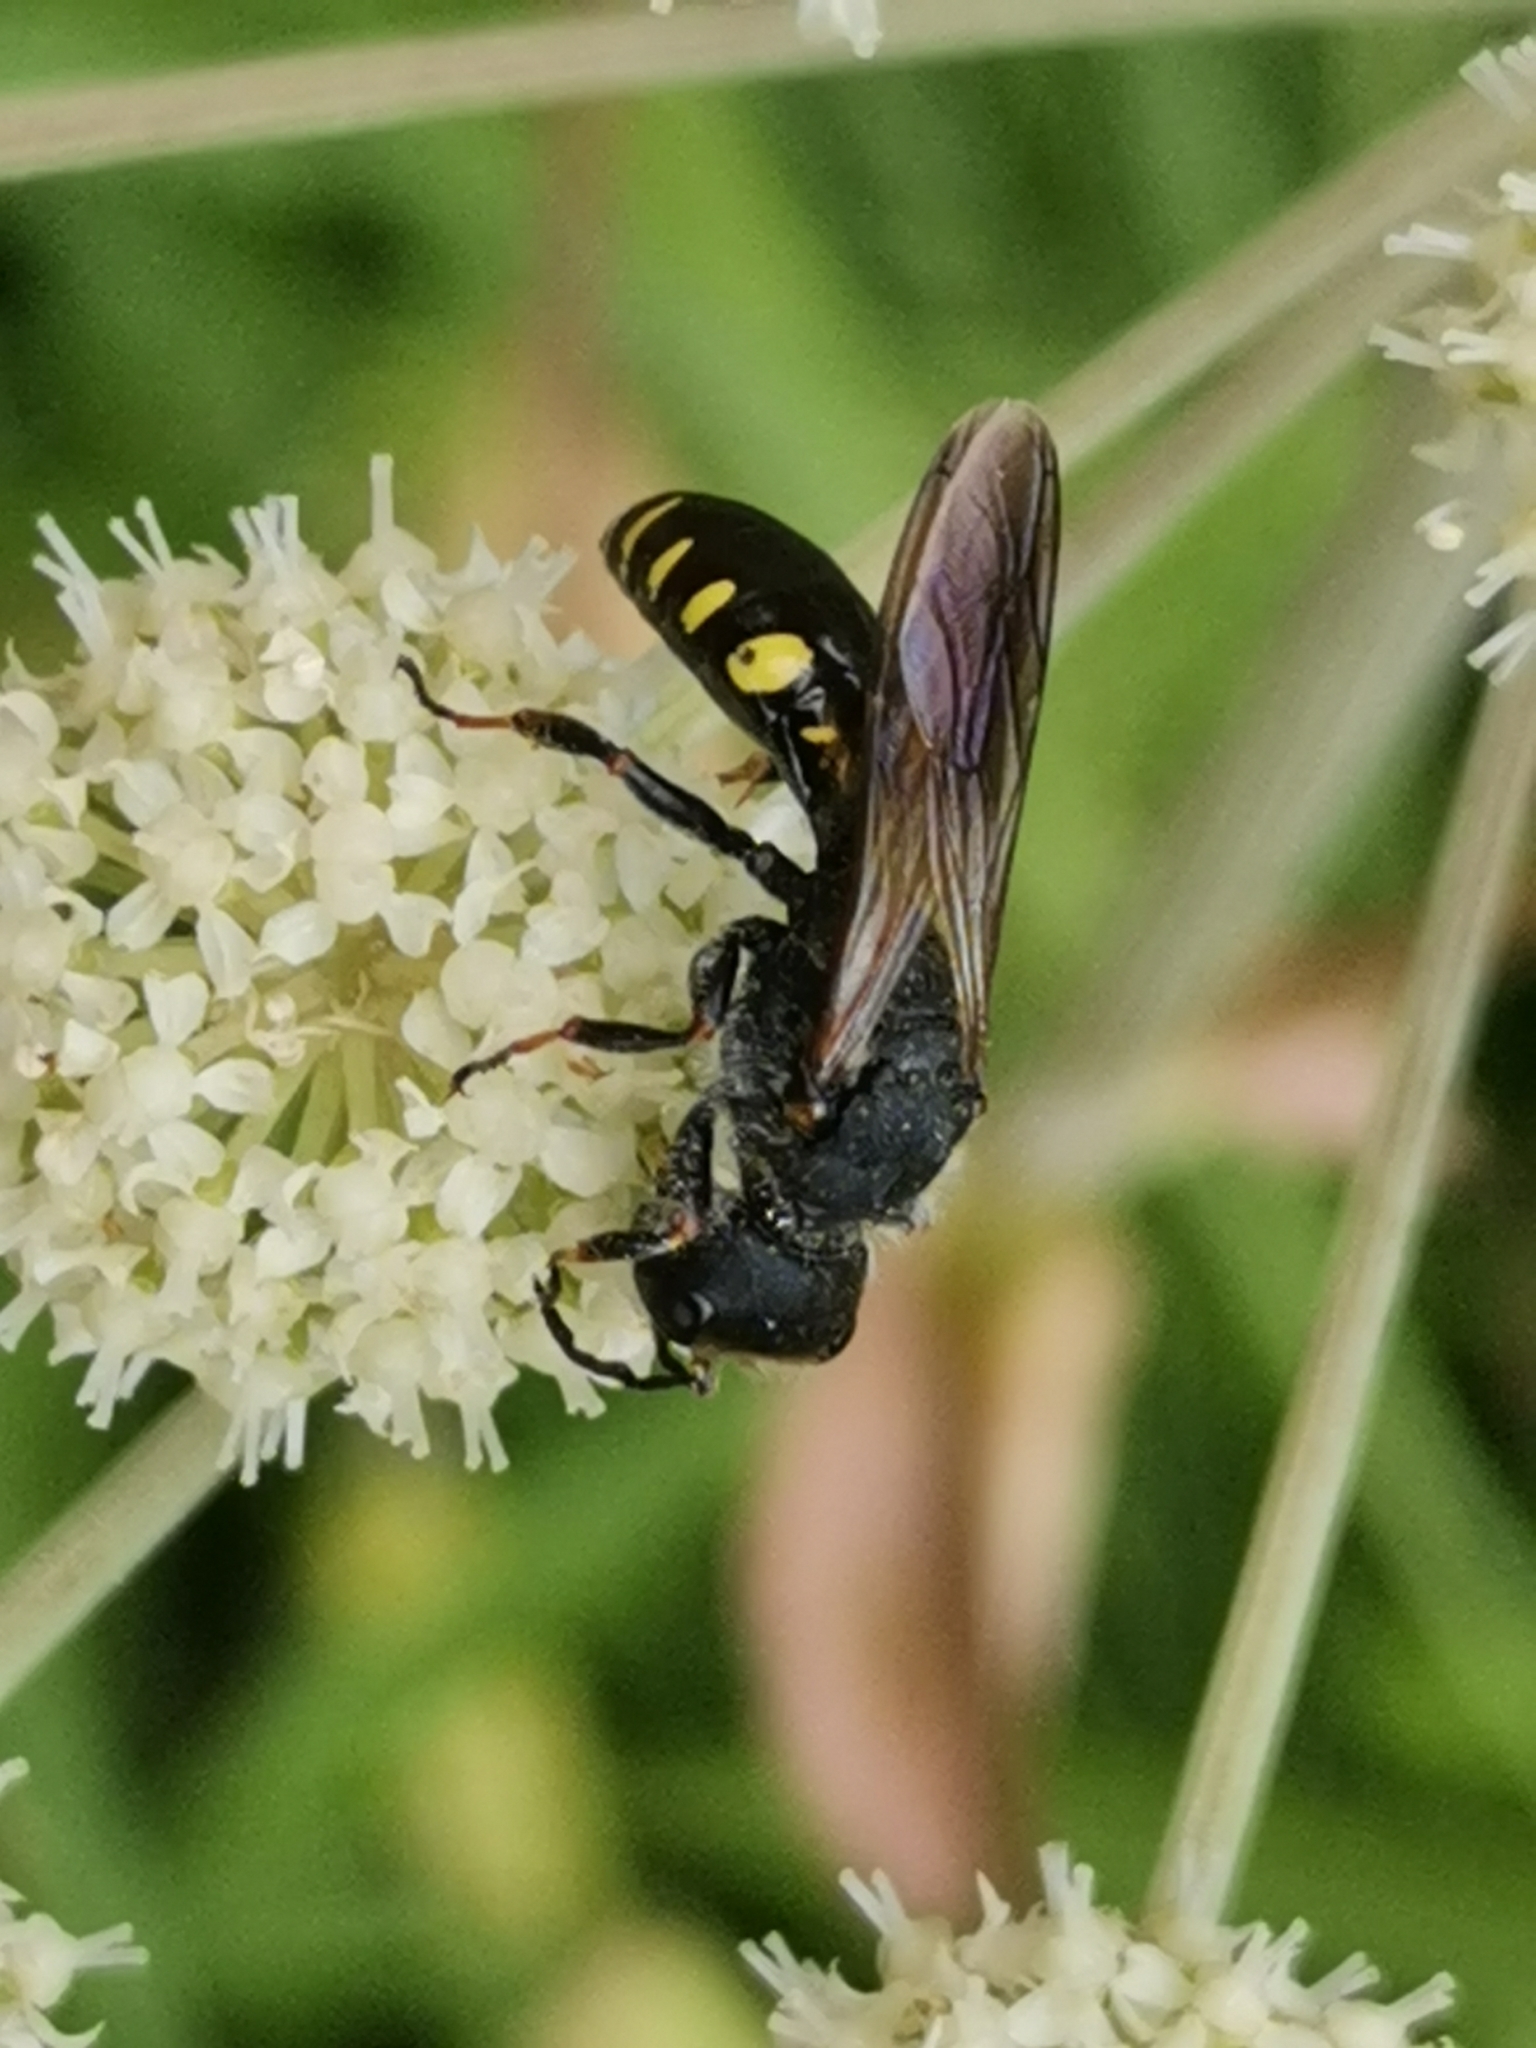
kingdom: Animalia
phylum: Arthropoda
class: Insecta
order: Hymenoptera
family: Crabronidae
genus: Ectemnius
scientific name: Ectemnius fossorius
